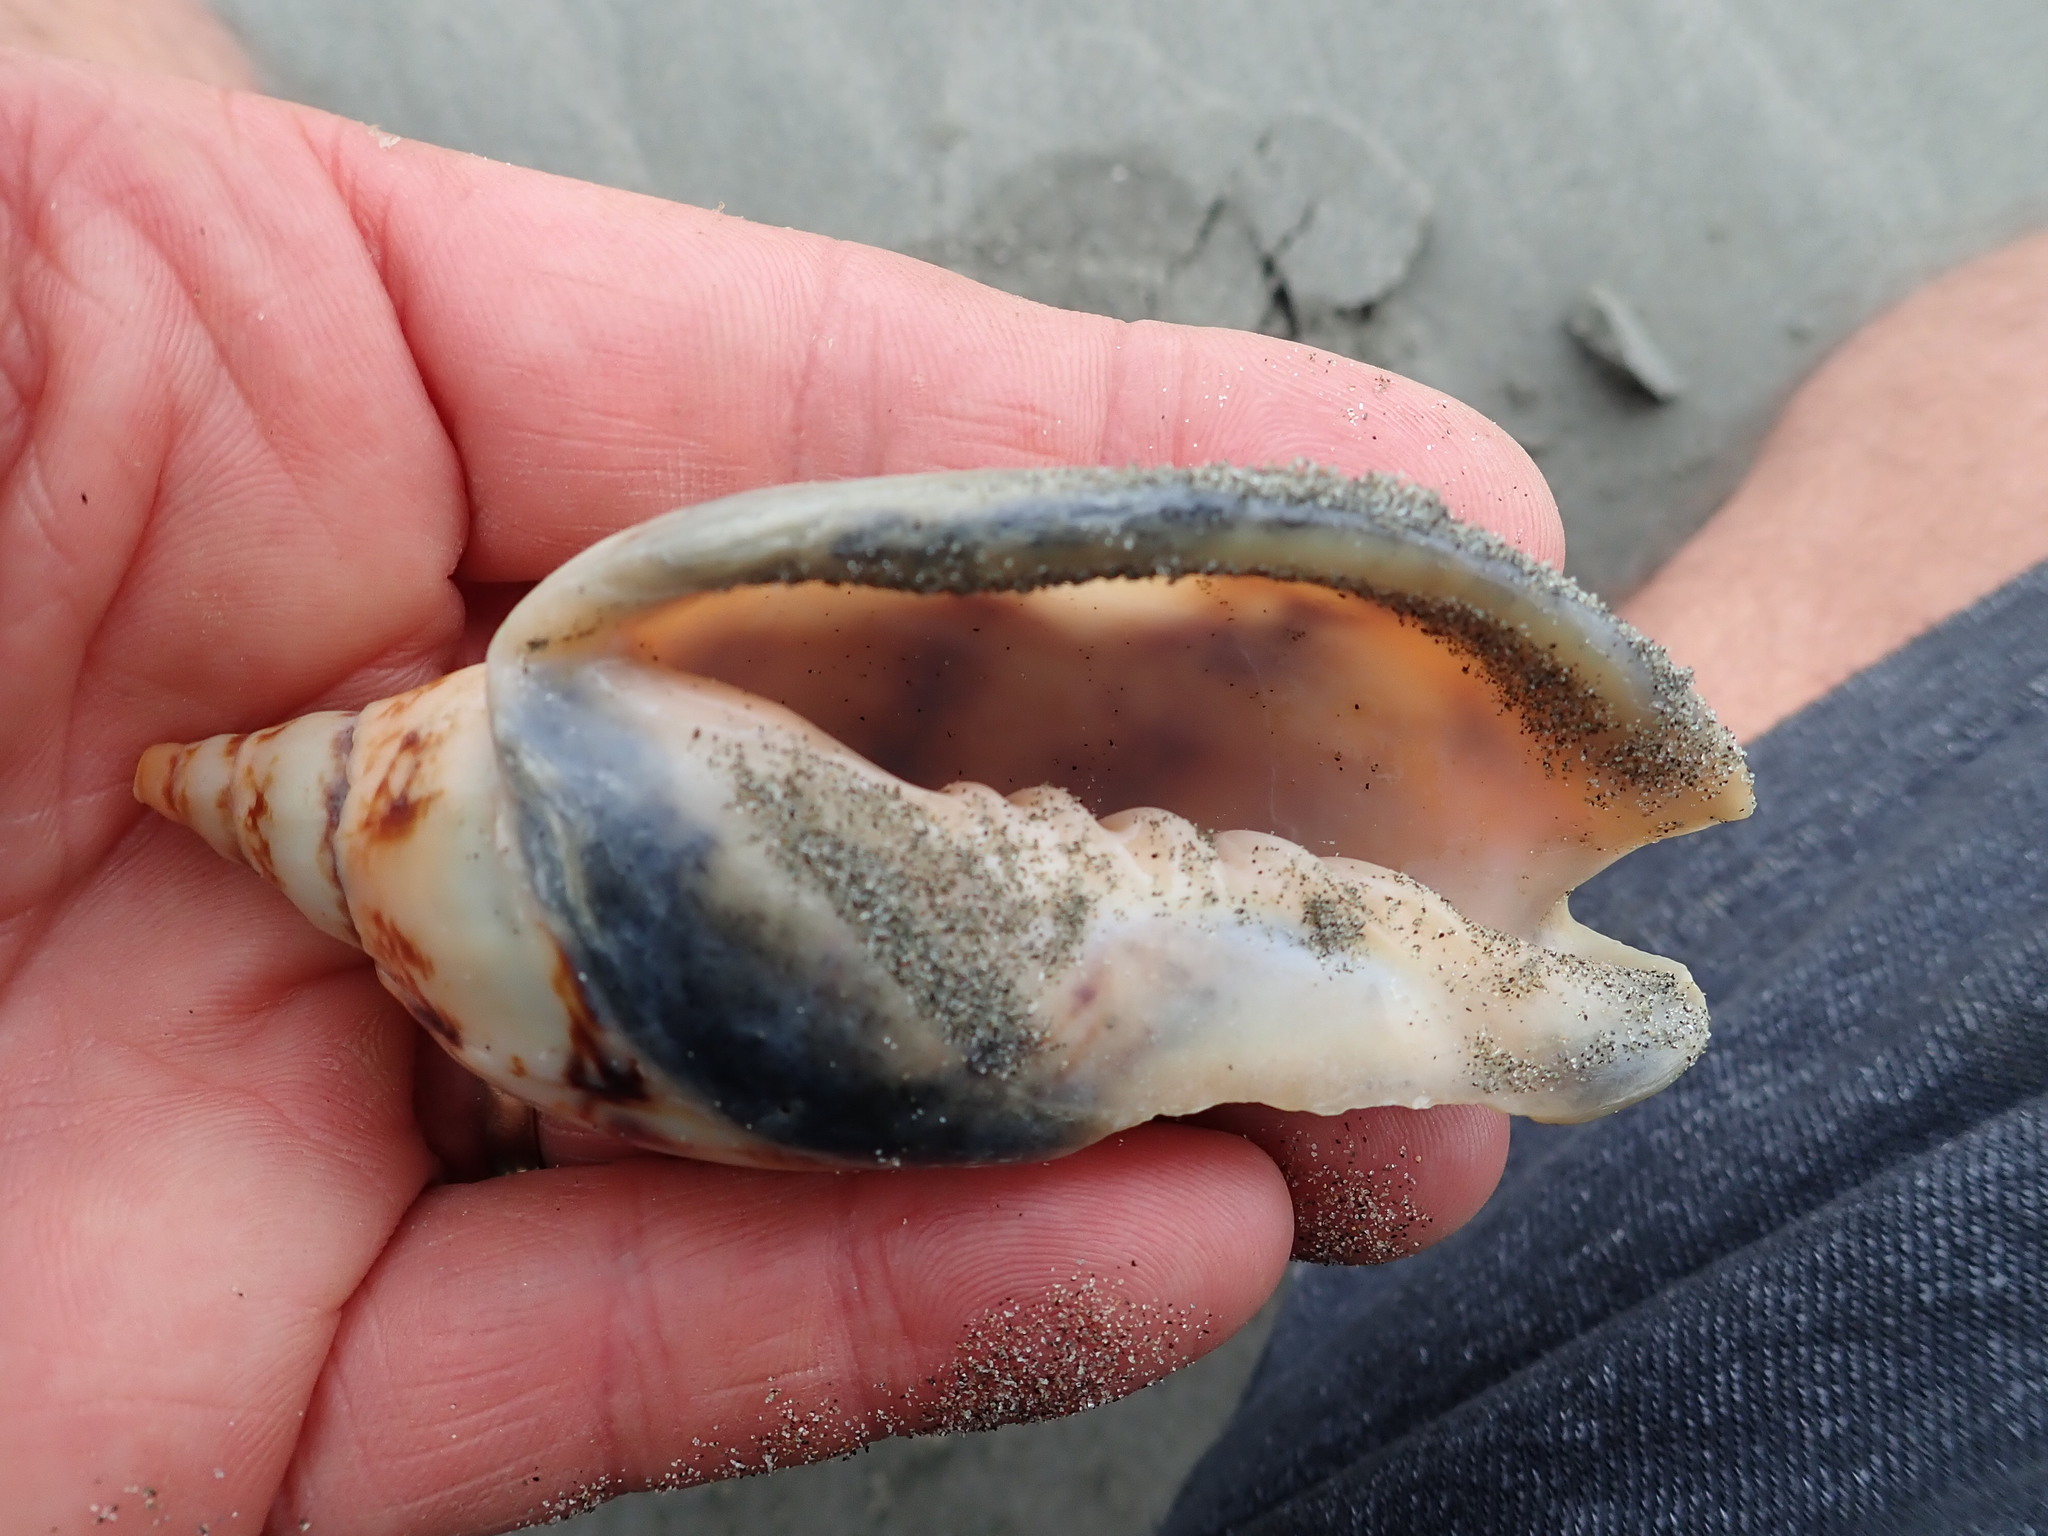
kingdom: Animalia
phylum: Mollusca
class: Gastropoda
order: Neogastropoda
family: Volutidae
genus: Alcithoe
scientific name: Alcithoe arabica
